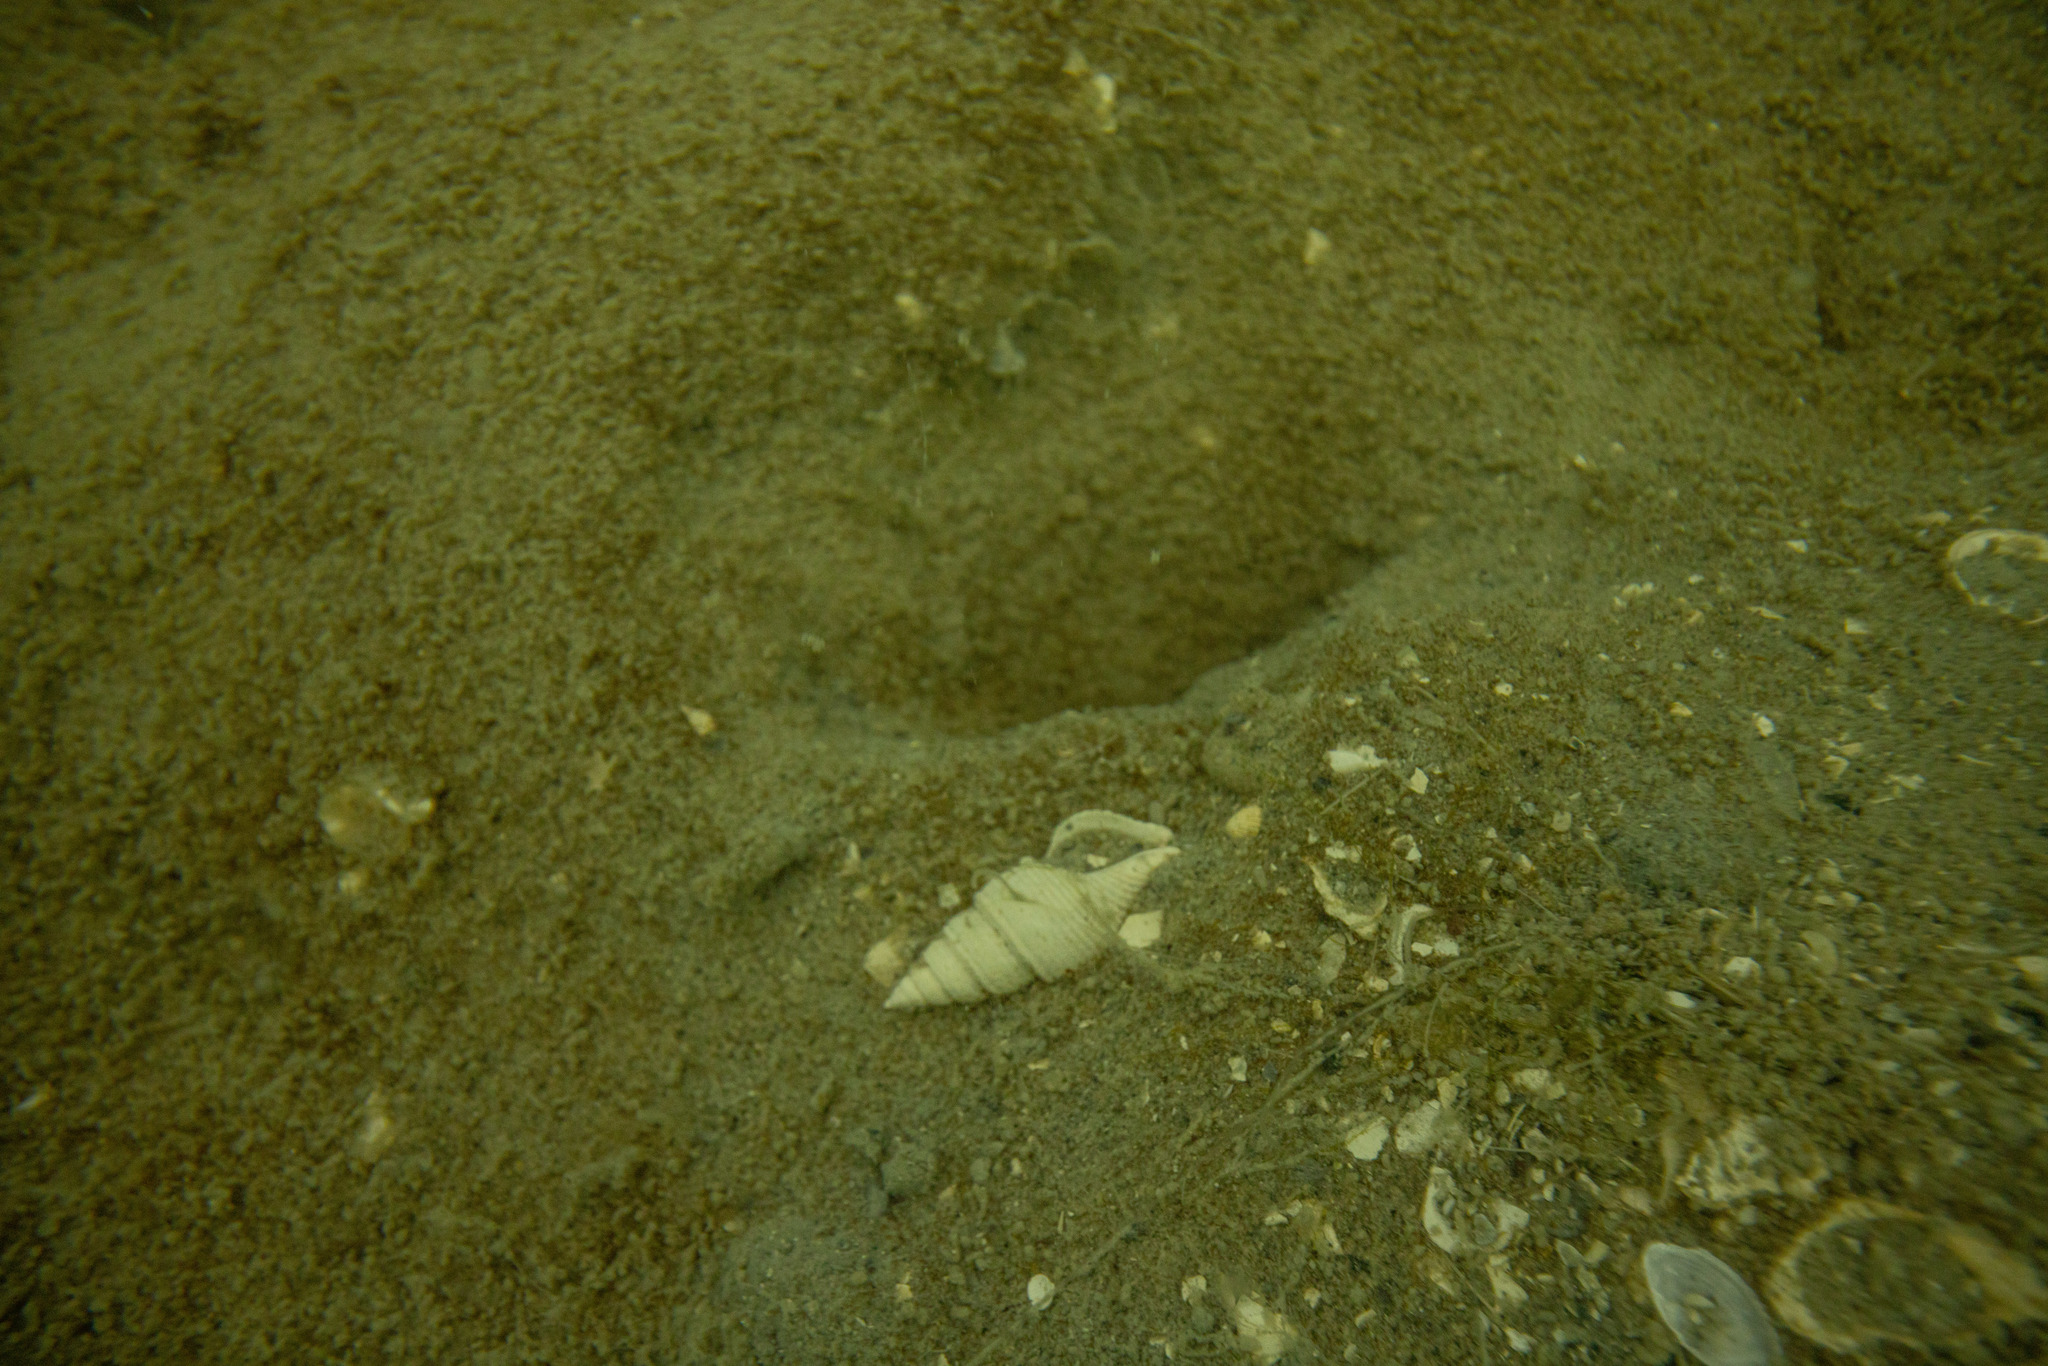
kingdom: Animalia
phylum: Mollusca
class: Gastropoda
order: Neogastropoda
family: Borsoniidae
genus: Phenatoma
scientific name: Phenatoma zealandicum
